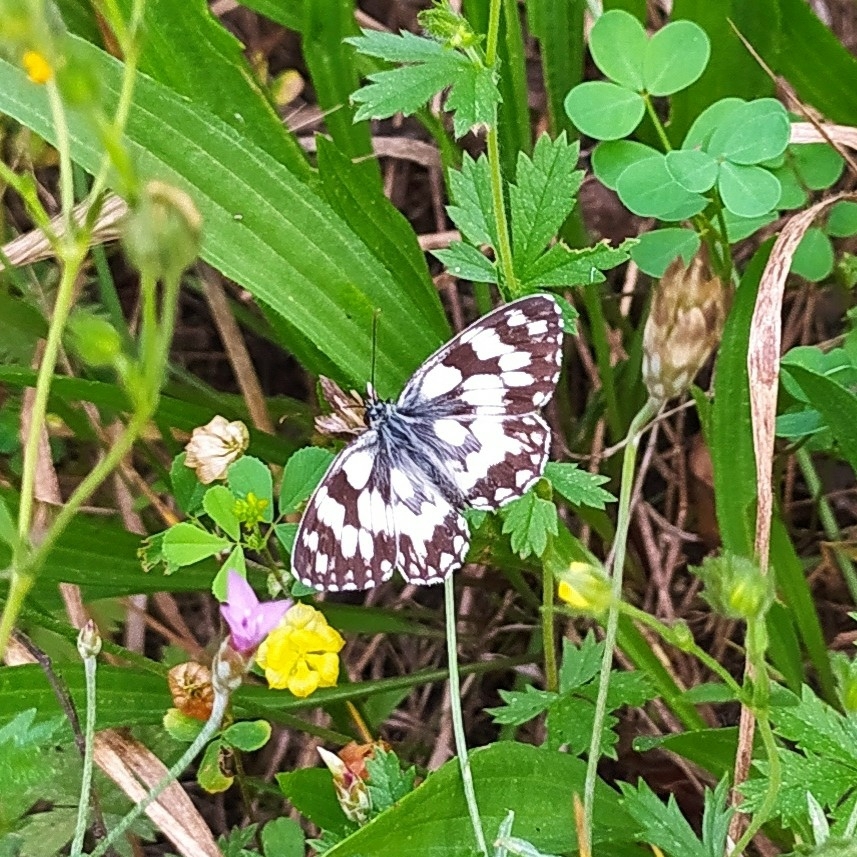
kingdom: Animalia
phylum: Arthropoda
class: Insecta
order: Lepidoptera
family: Nymphalidae
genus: Melanargia
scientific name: Melanargia galathea
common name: Marbled white
